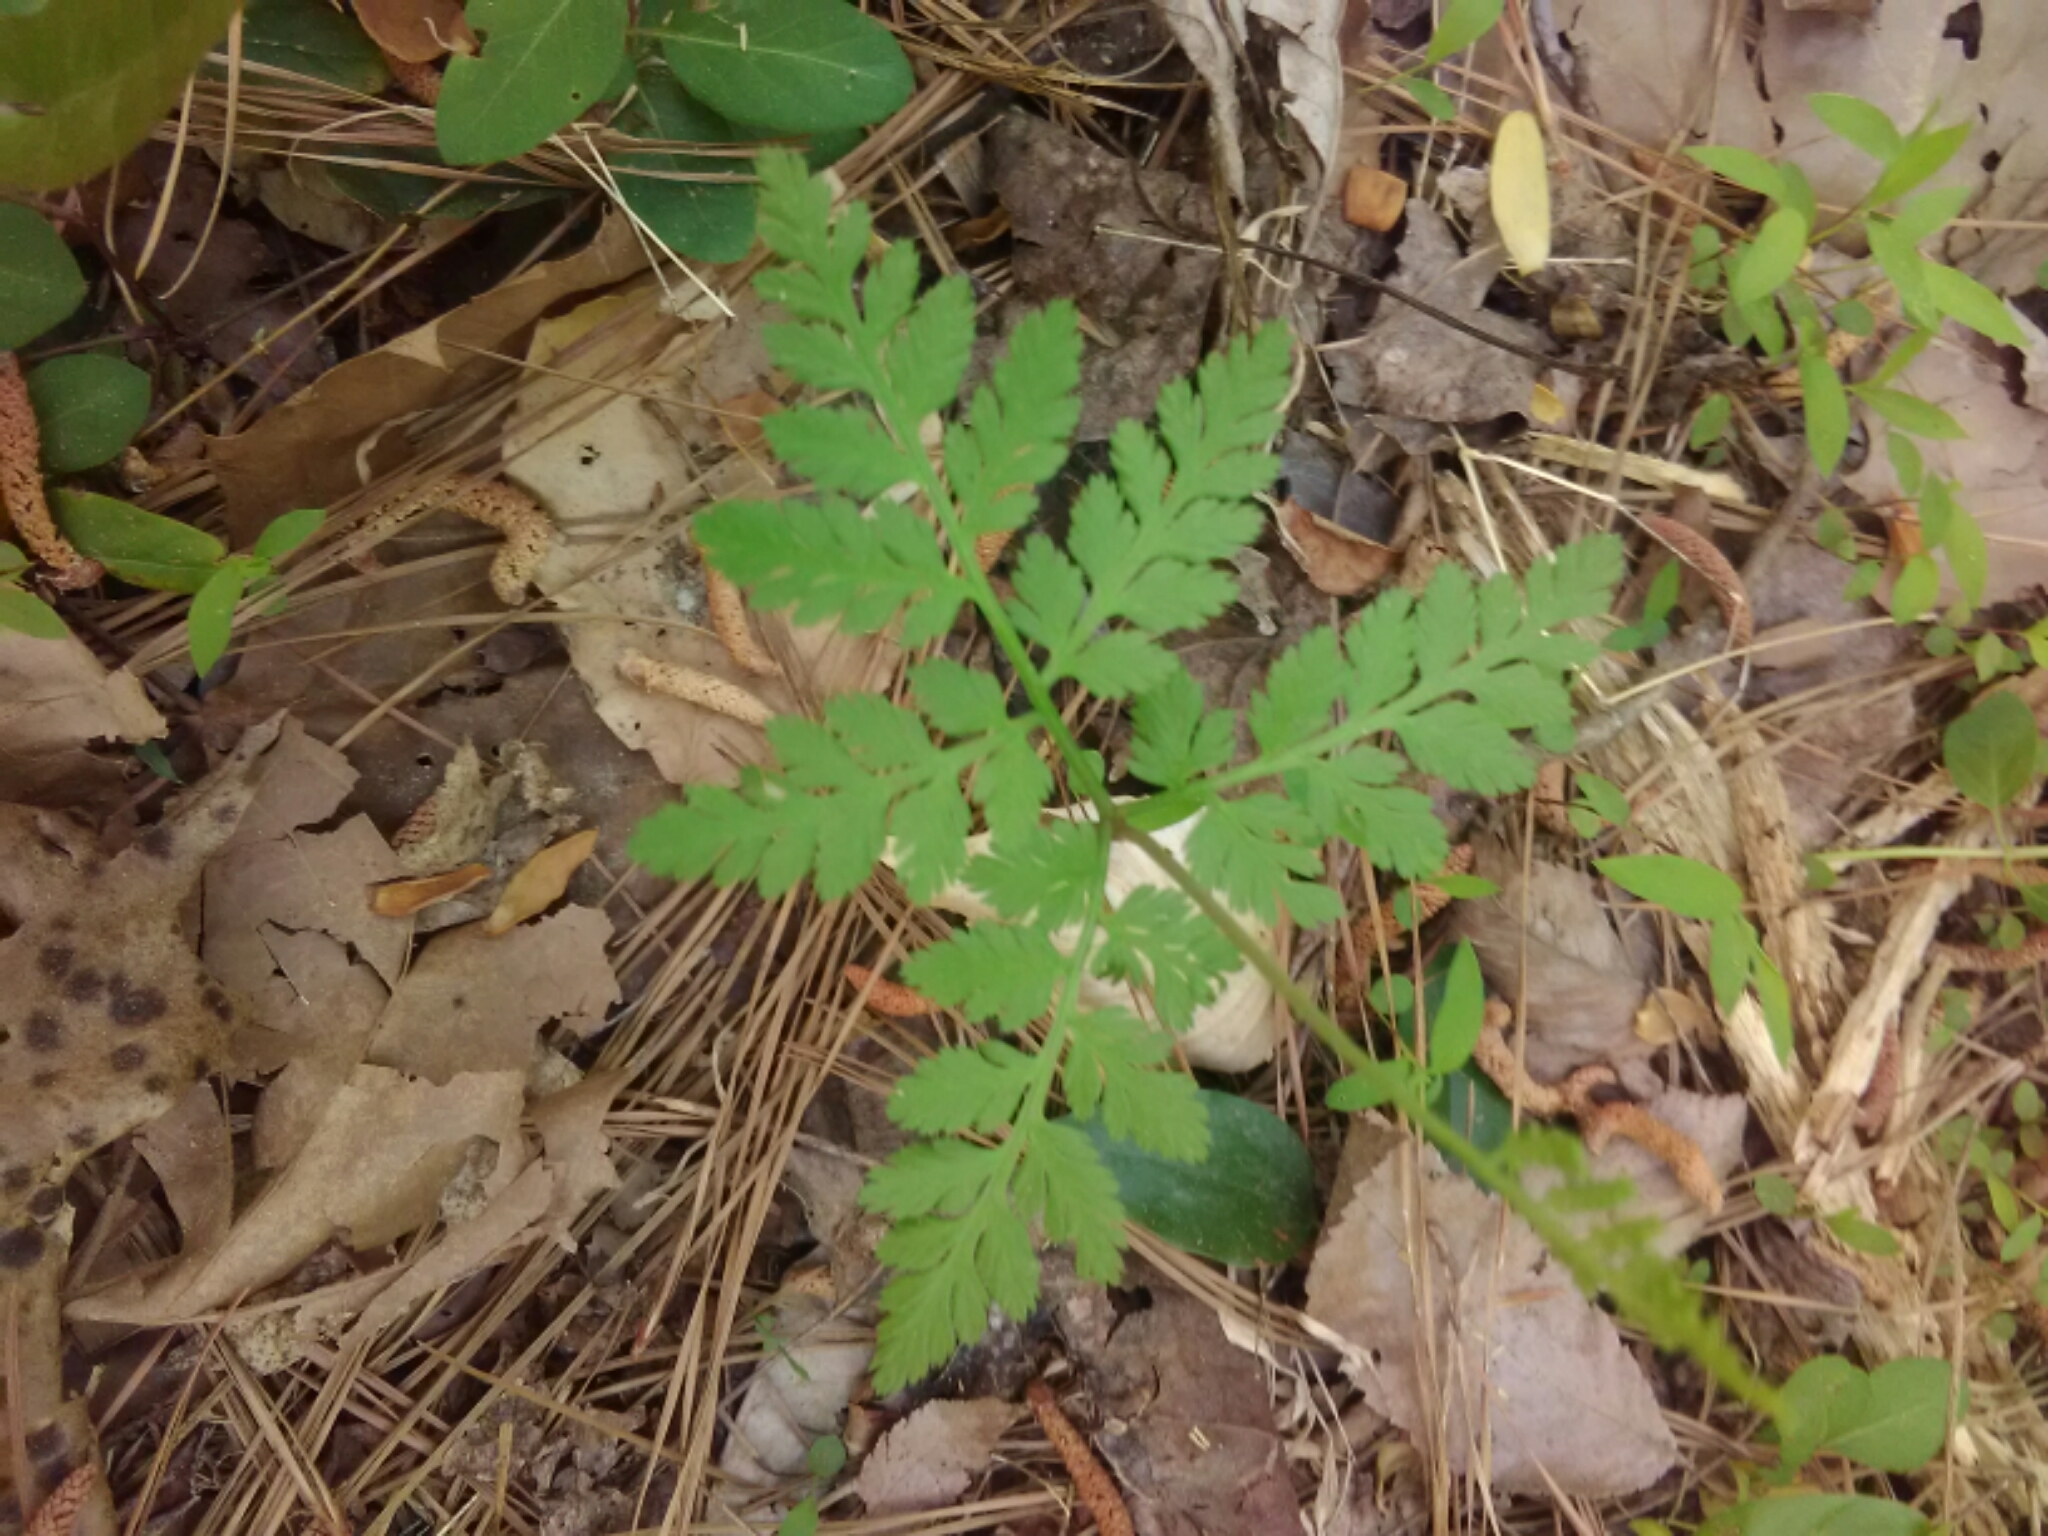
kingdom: Plantae
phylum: Tracheophyta
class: Polypodiopsida
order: Ophioglossales
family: Ophioglossaceae
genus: Botrypus
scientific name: Botrypus virginianus
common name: Common grapefern
